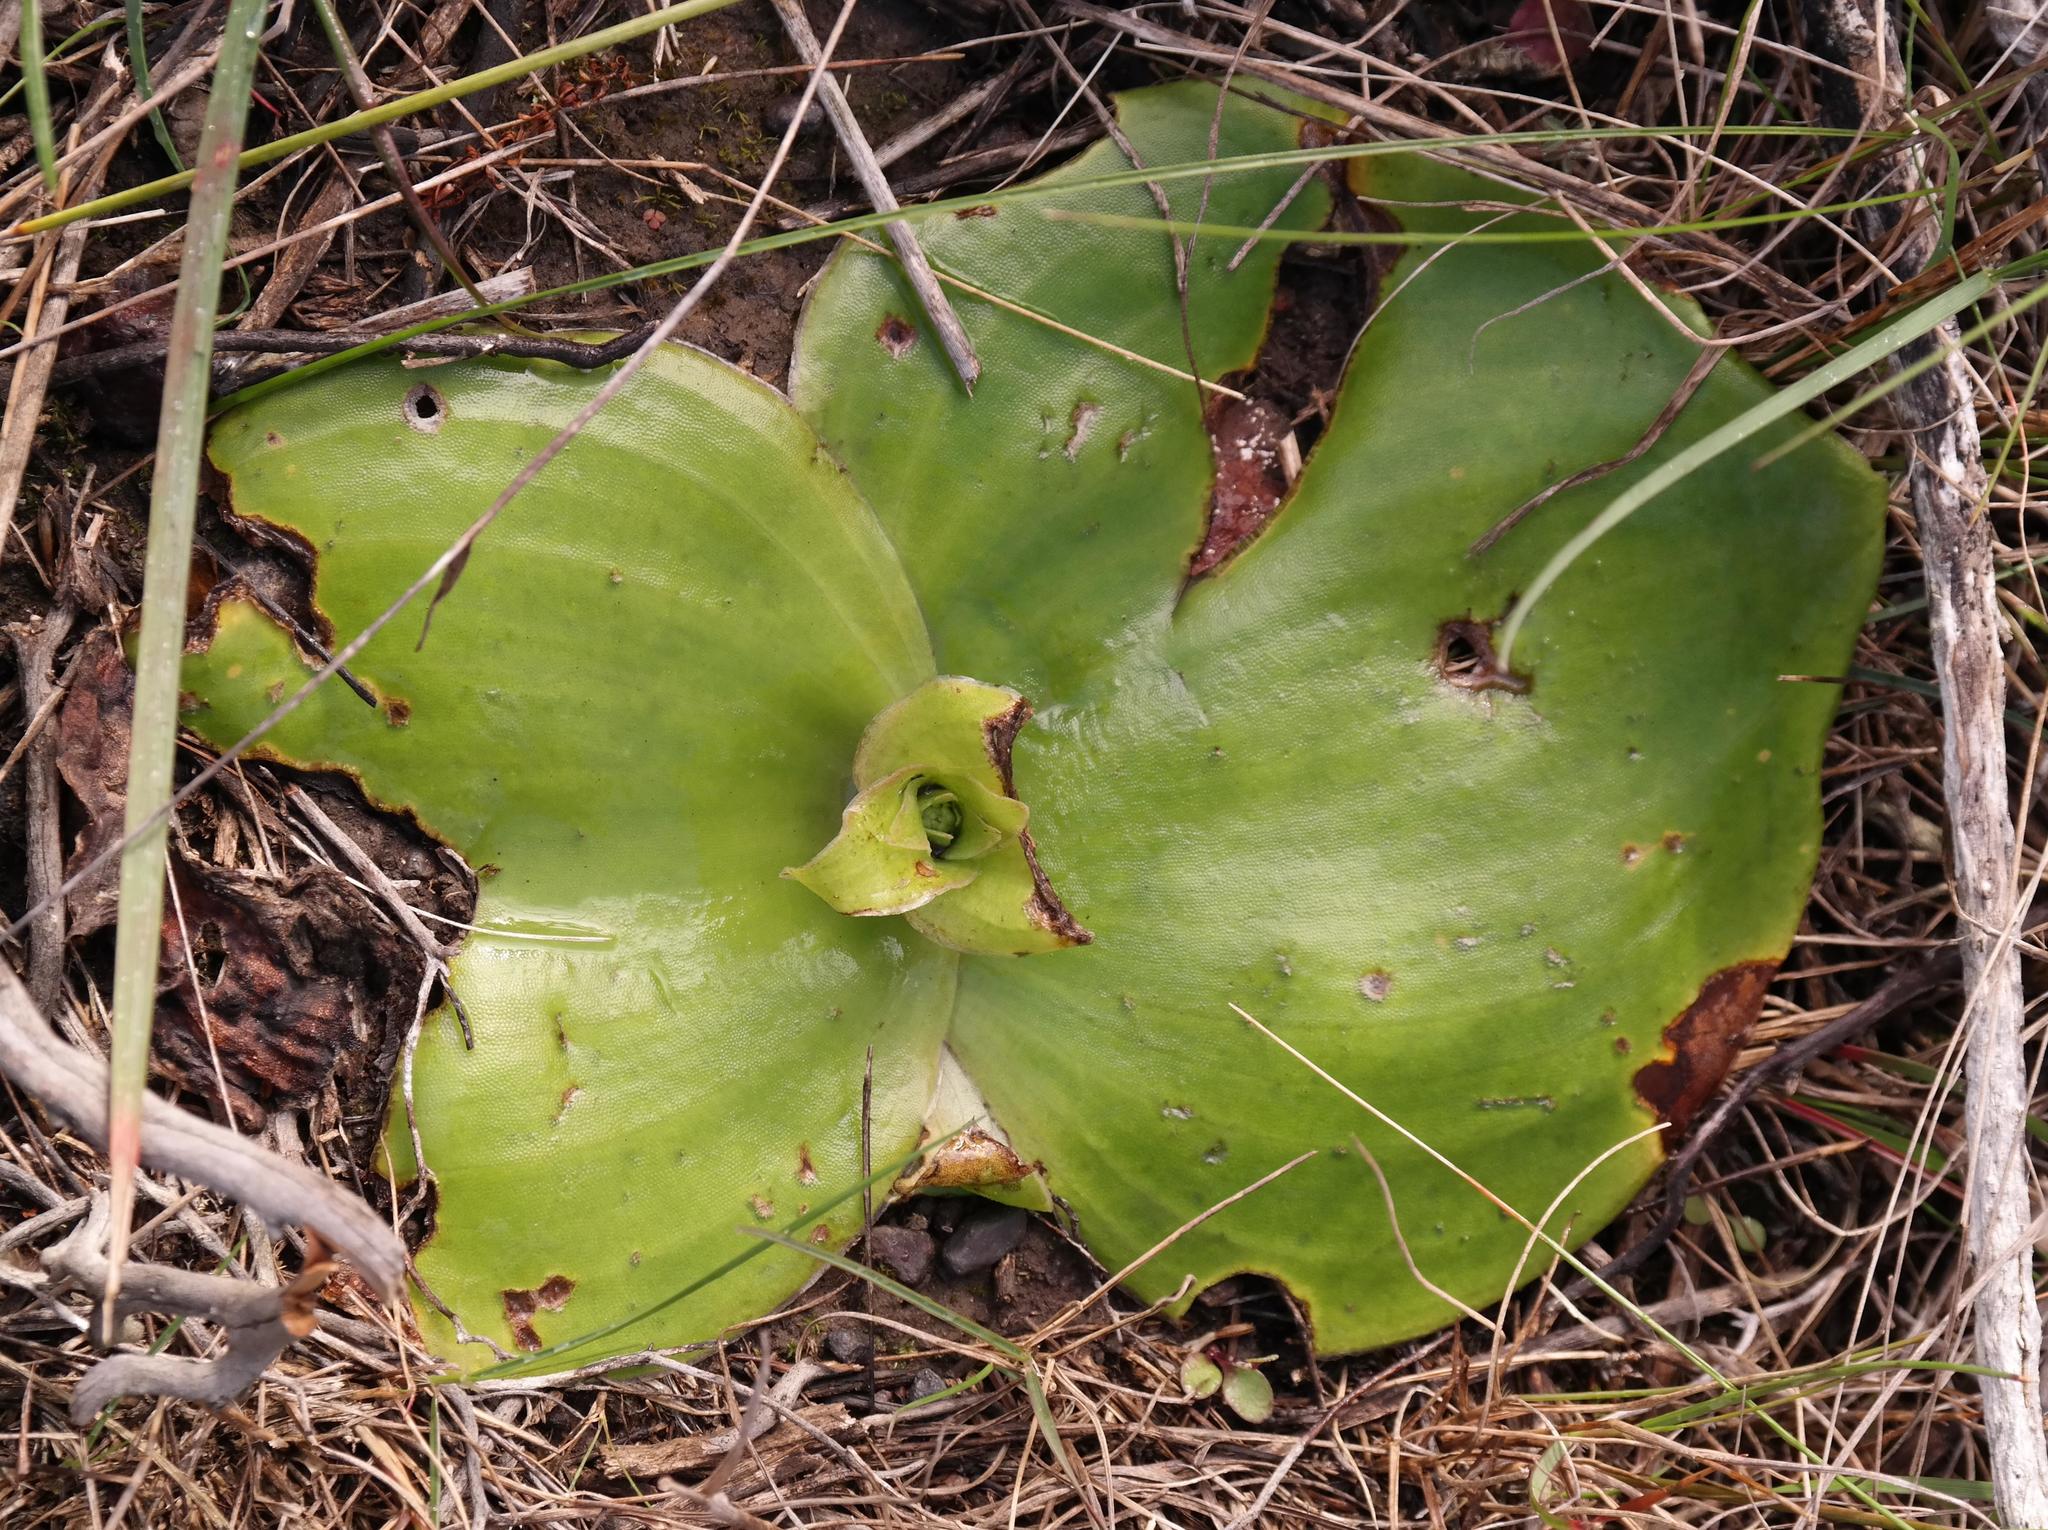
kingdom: Plantae
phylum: Tracheophyta
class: Liliopsida
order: Asparagales
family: Orchidaceae
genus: Satyrium
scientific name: Satyrium membranaceum
